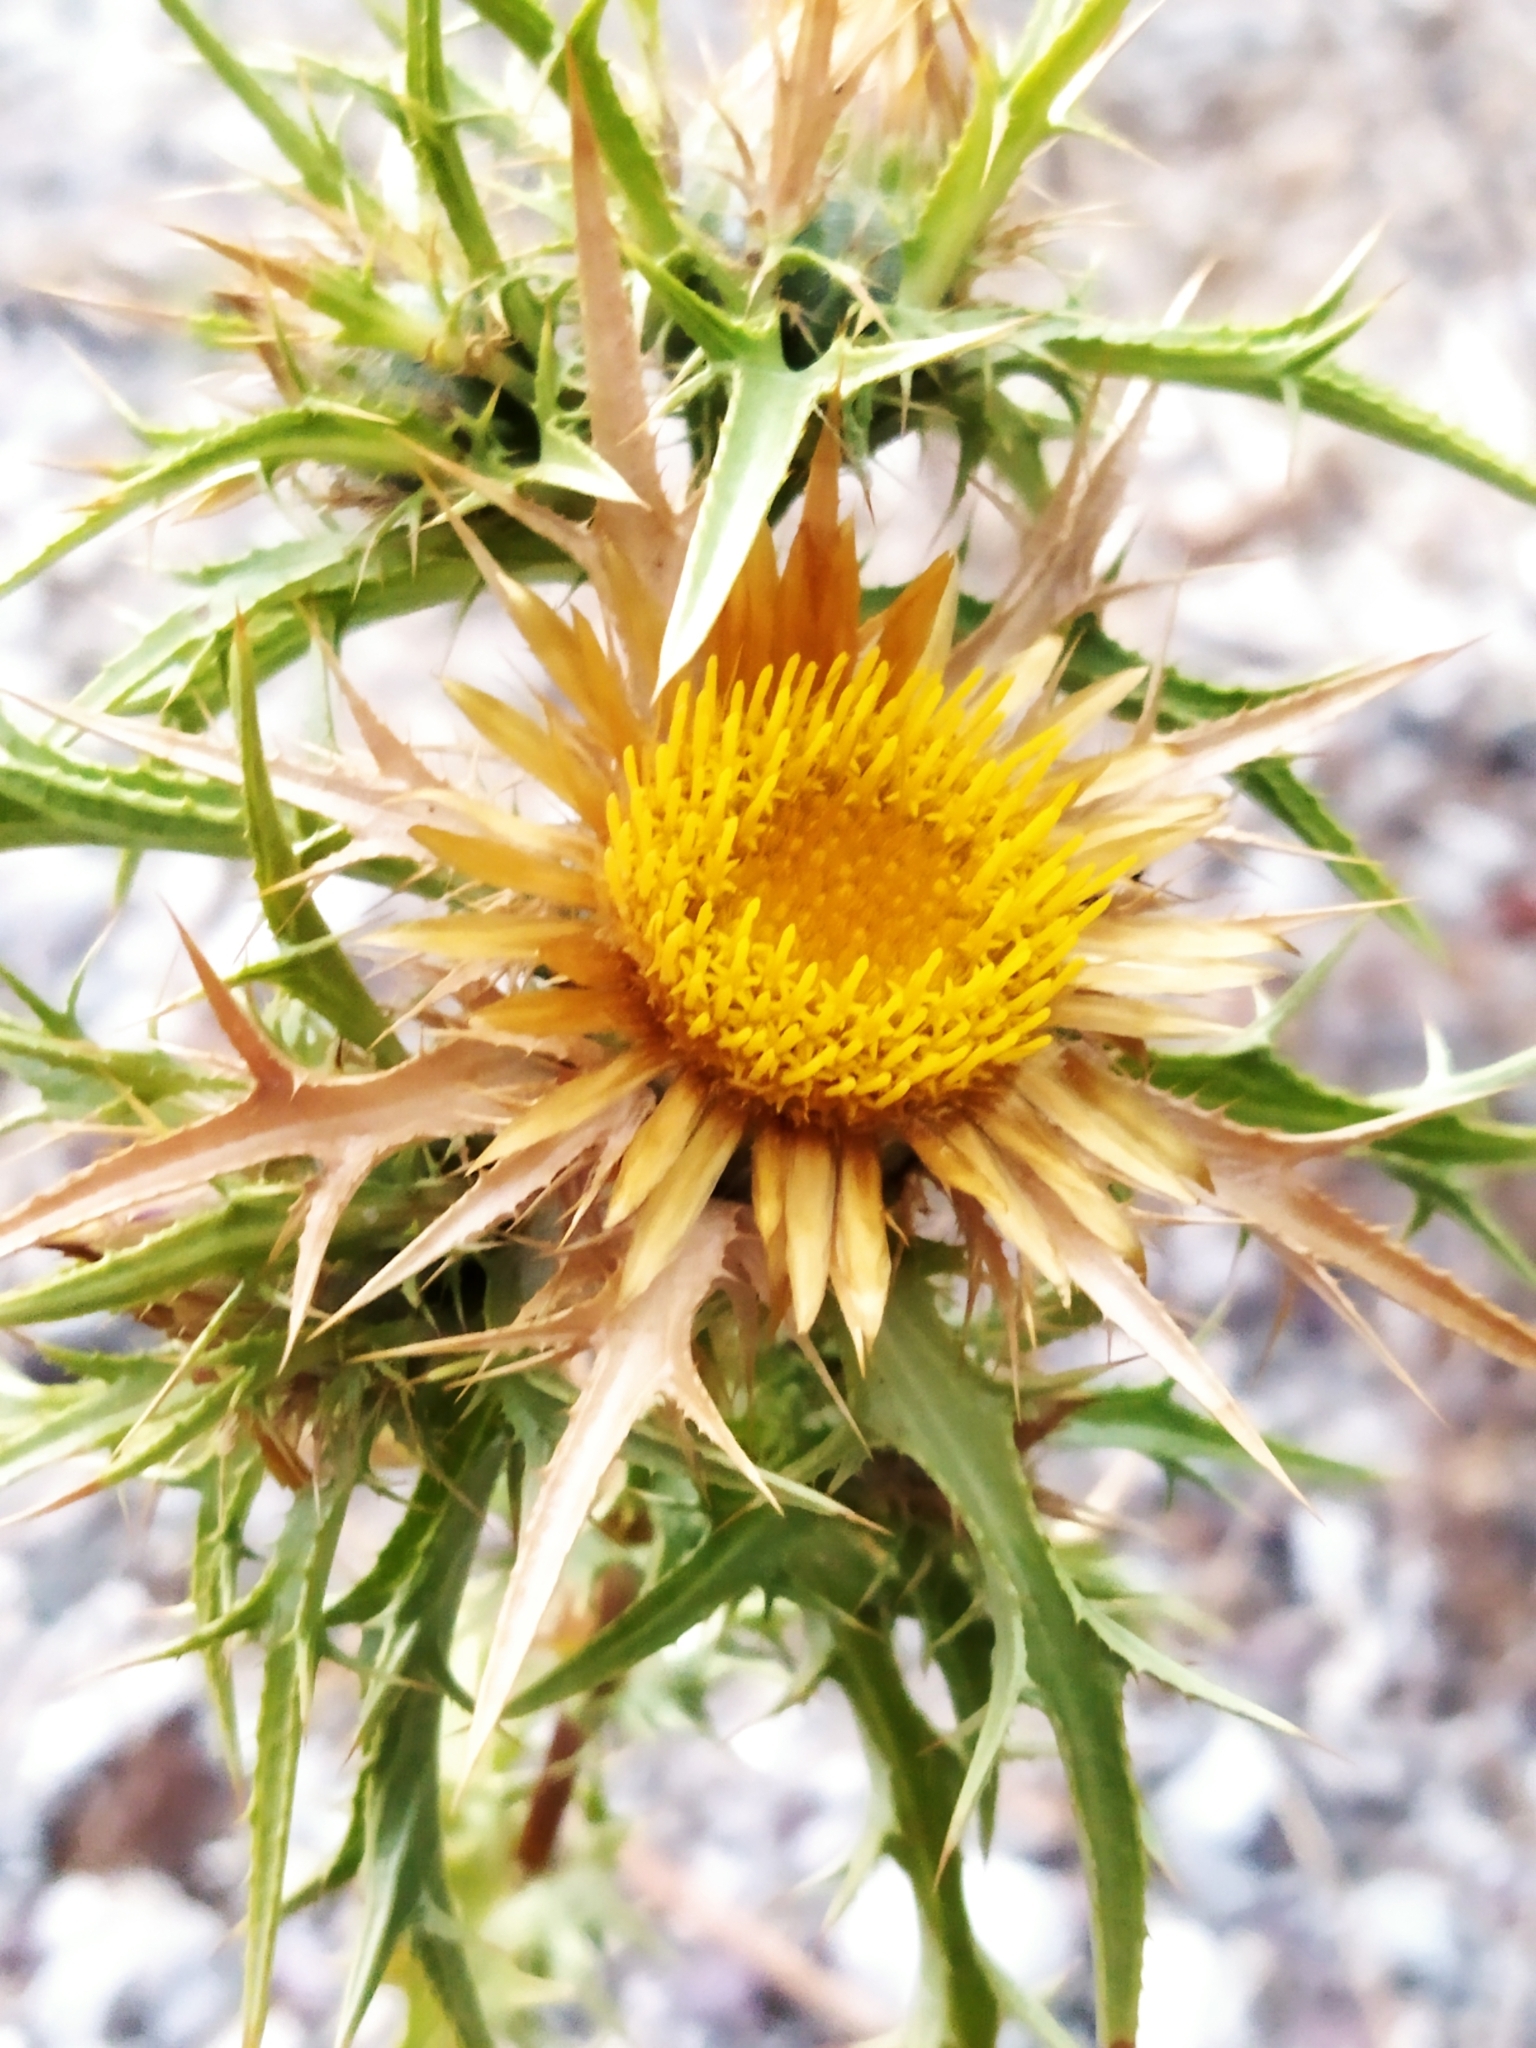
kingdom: Plantae
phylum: Tracheophyta
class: Magnoliopsida
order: Asterales
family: Asteraceae
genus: Carlina
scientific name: Carlina graeca
